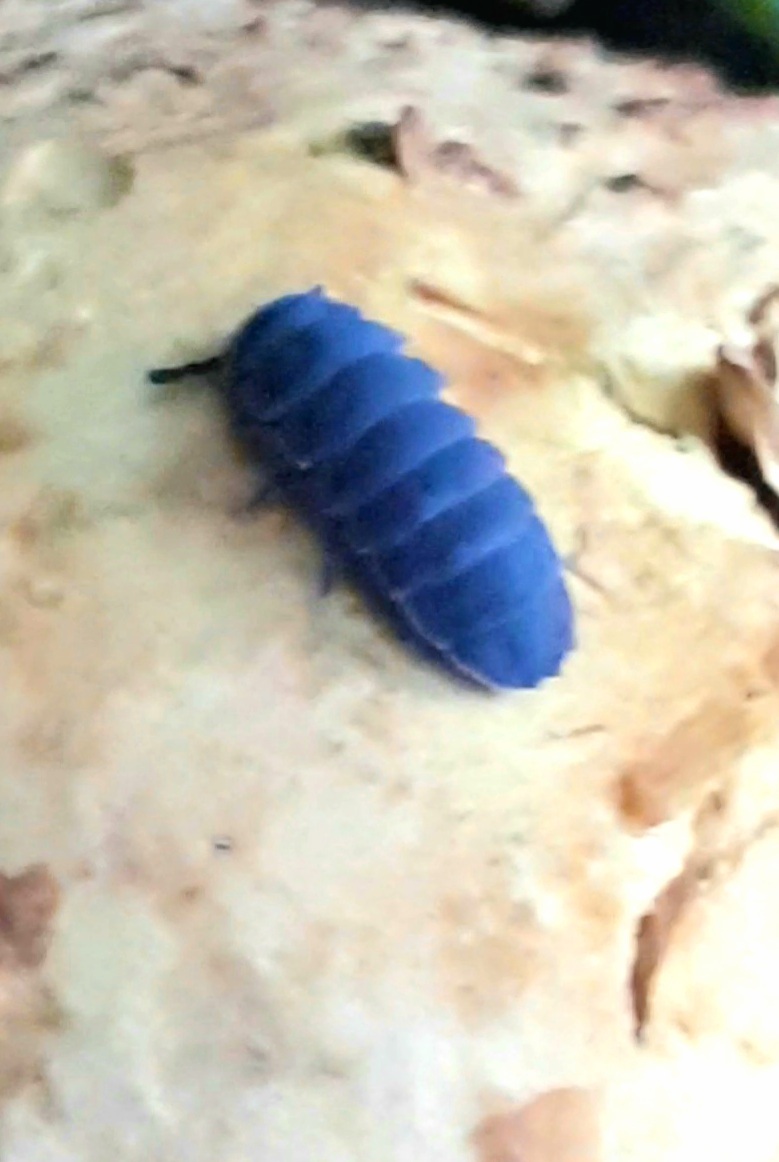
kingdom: Animalia
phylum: Arthropoda
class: Collembola
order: Poduromorpha
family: Onychiuridae
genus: Tetrodontophora
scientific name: Tetrodontophora bielanensis
